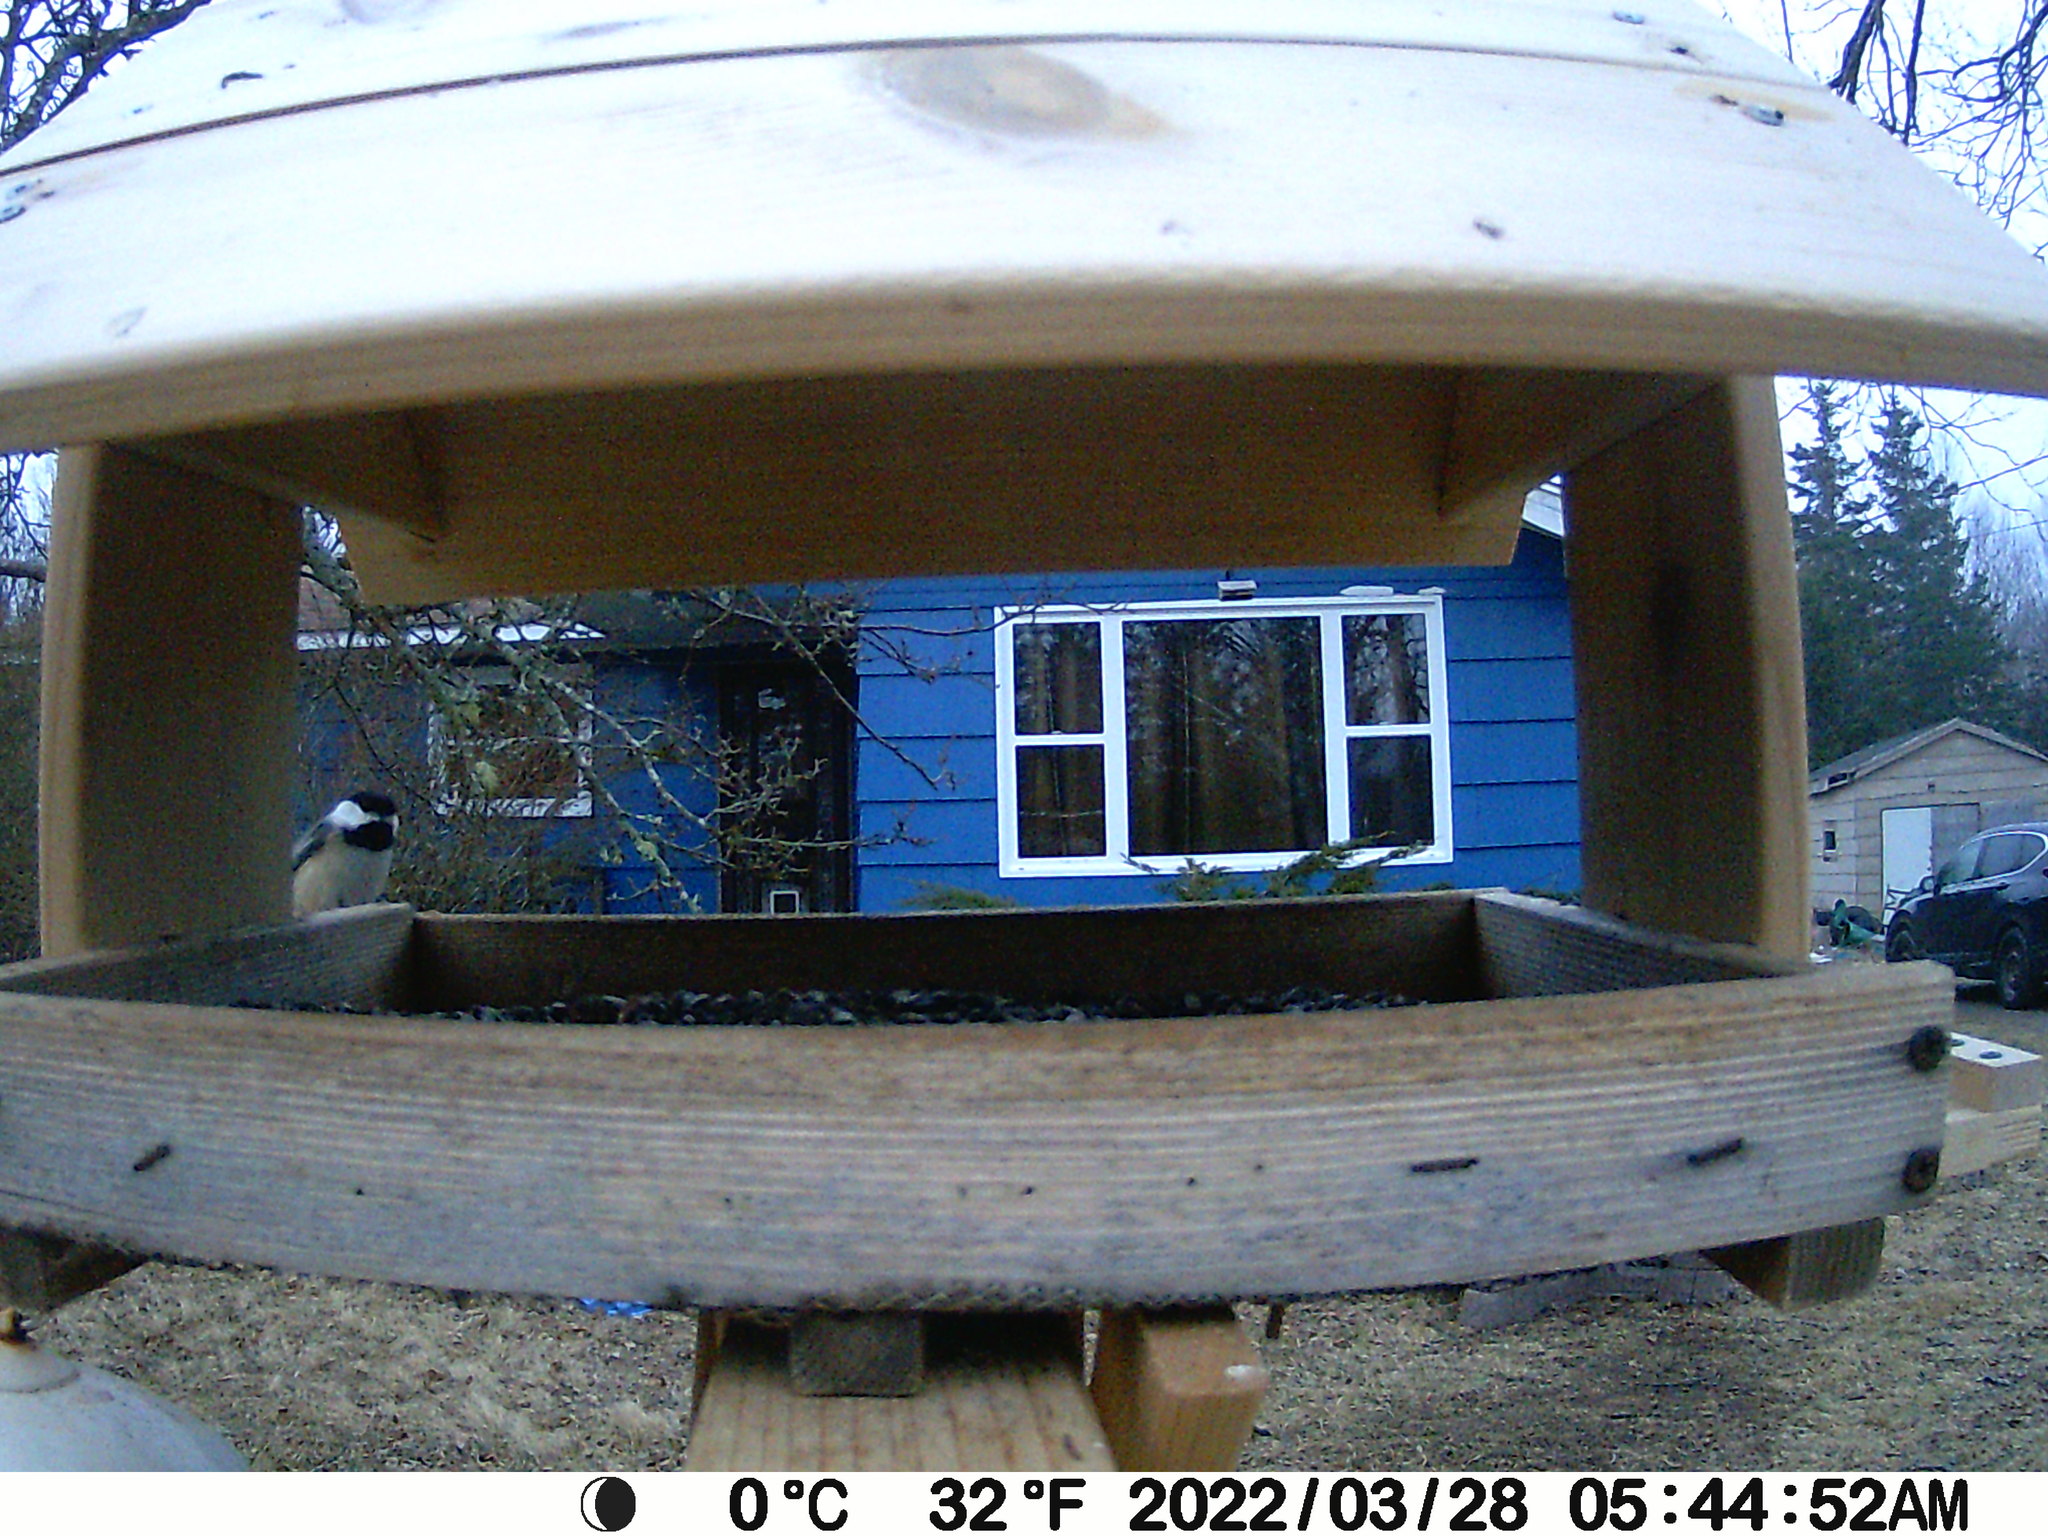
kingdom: Animalia
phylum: Chordata
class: Aves
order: Passeriformes
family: Paridae
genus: Poecile
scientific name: Poecile atricapillus
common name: Black-capped chickadee
